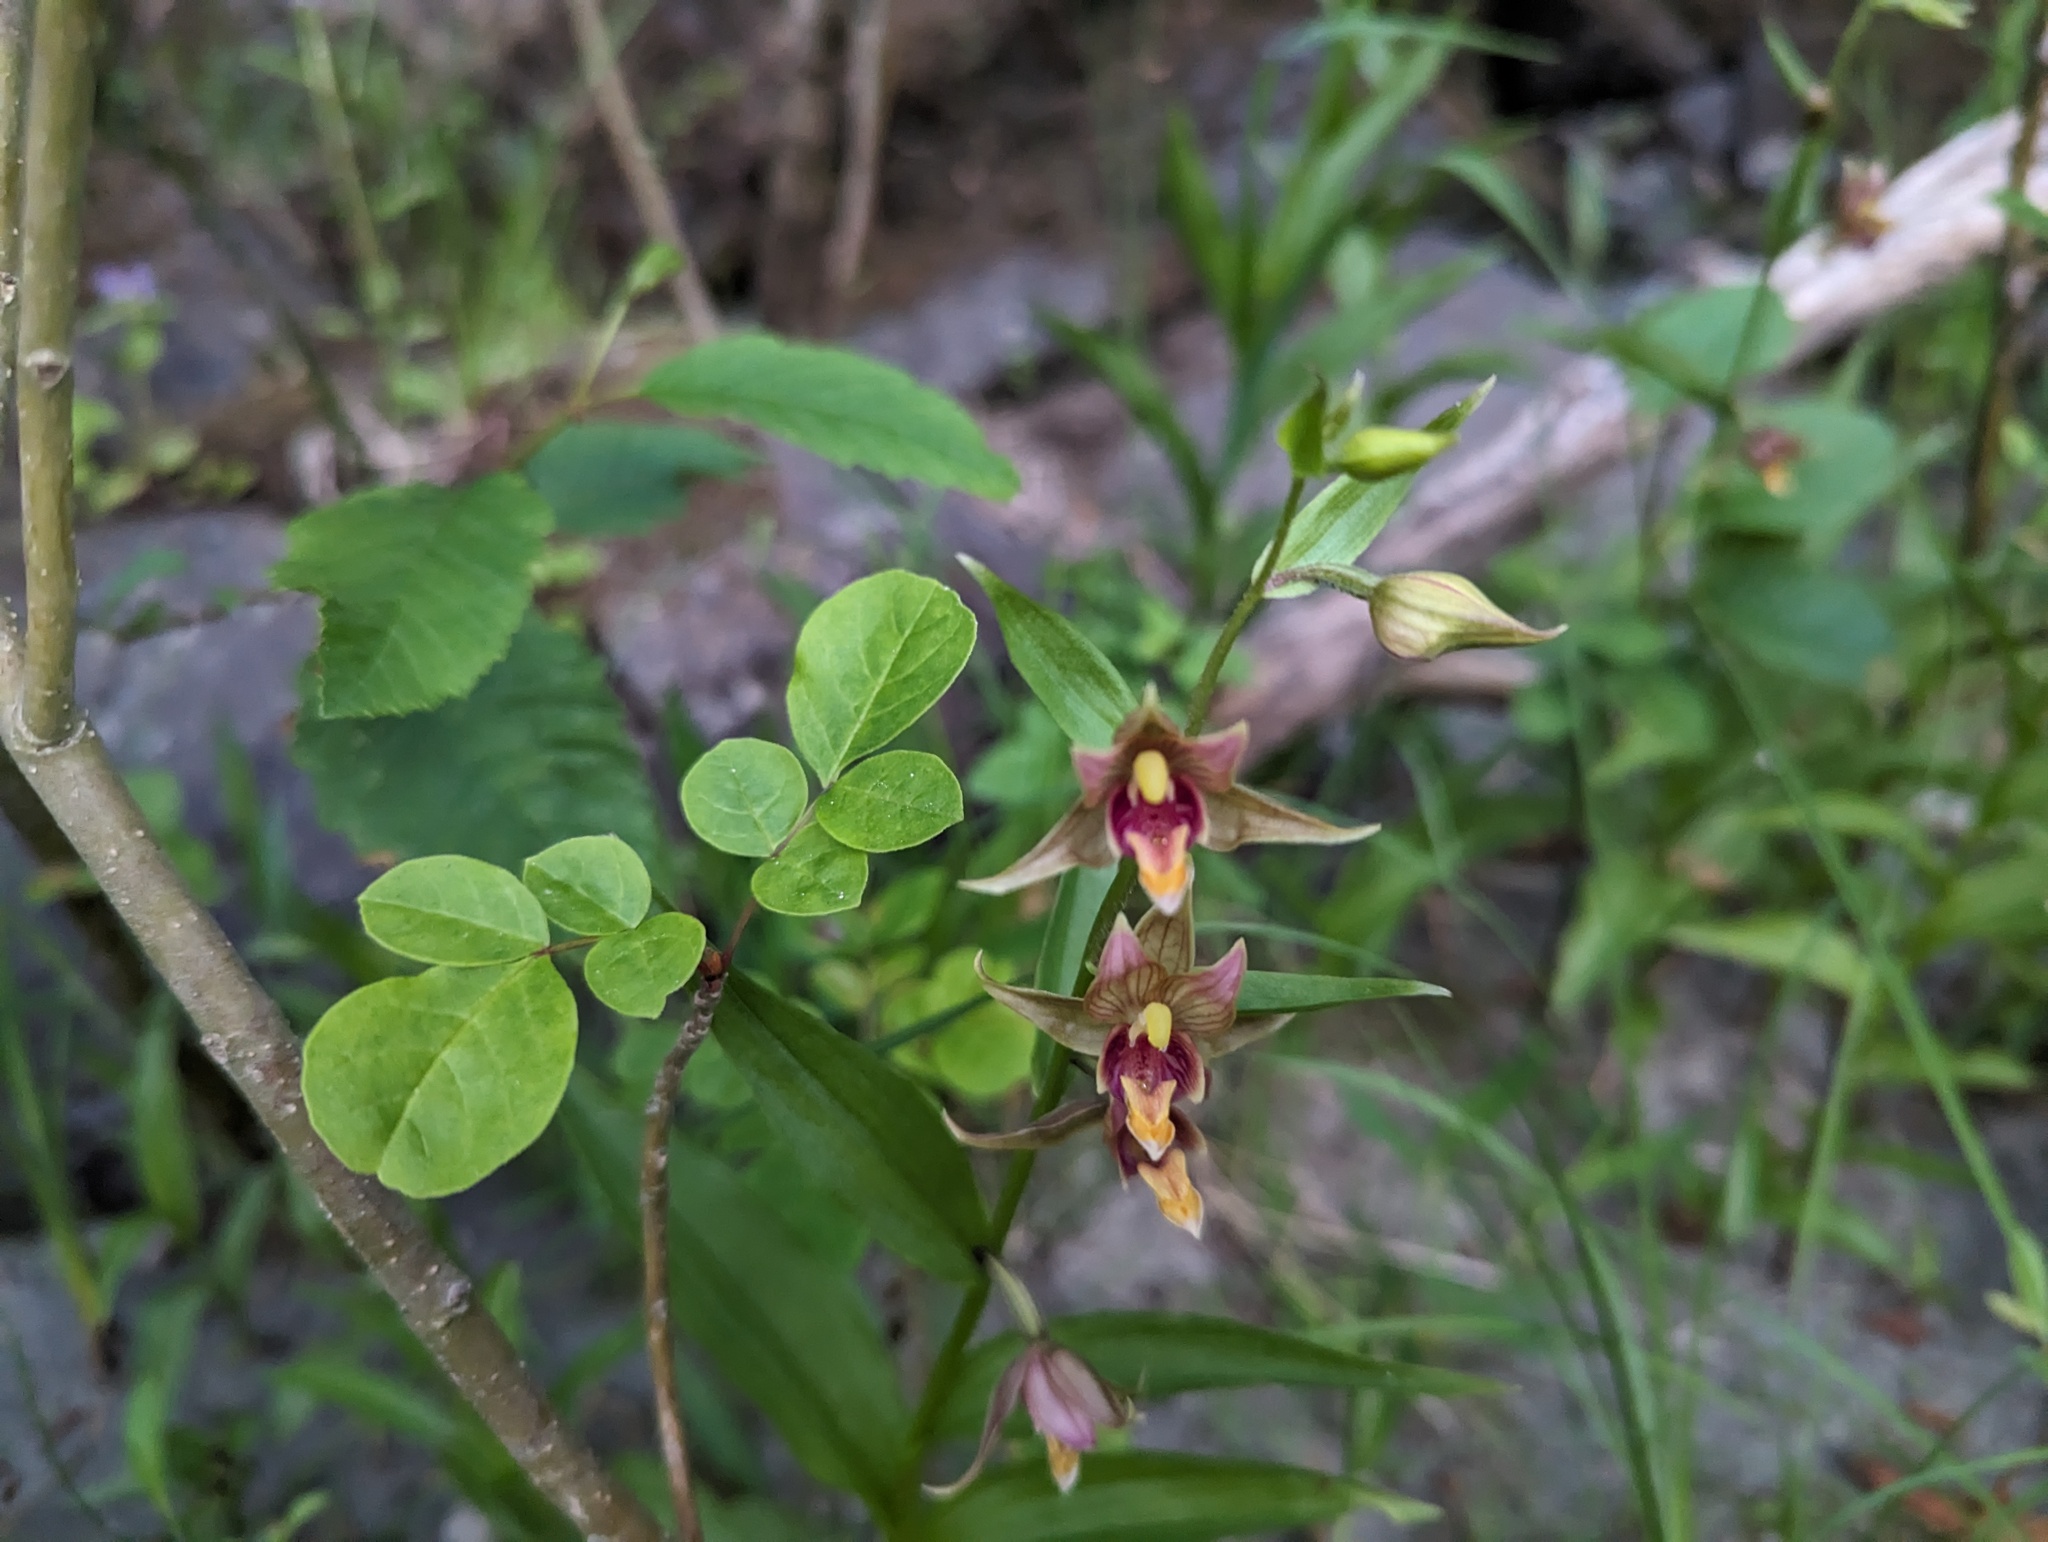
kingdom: Plantae
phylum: Tracheophyta
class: Liliopsida
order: Asparagales
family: Orchidaceae
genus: Epipactis
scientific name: Epipactis gigantea
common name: Chatterbox
